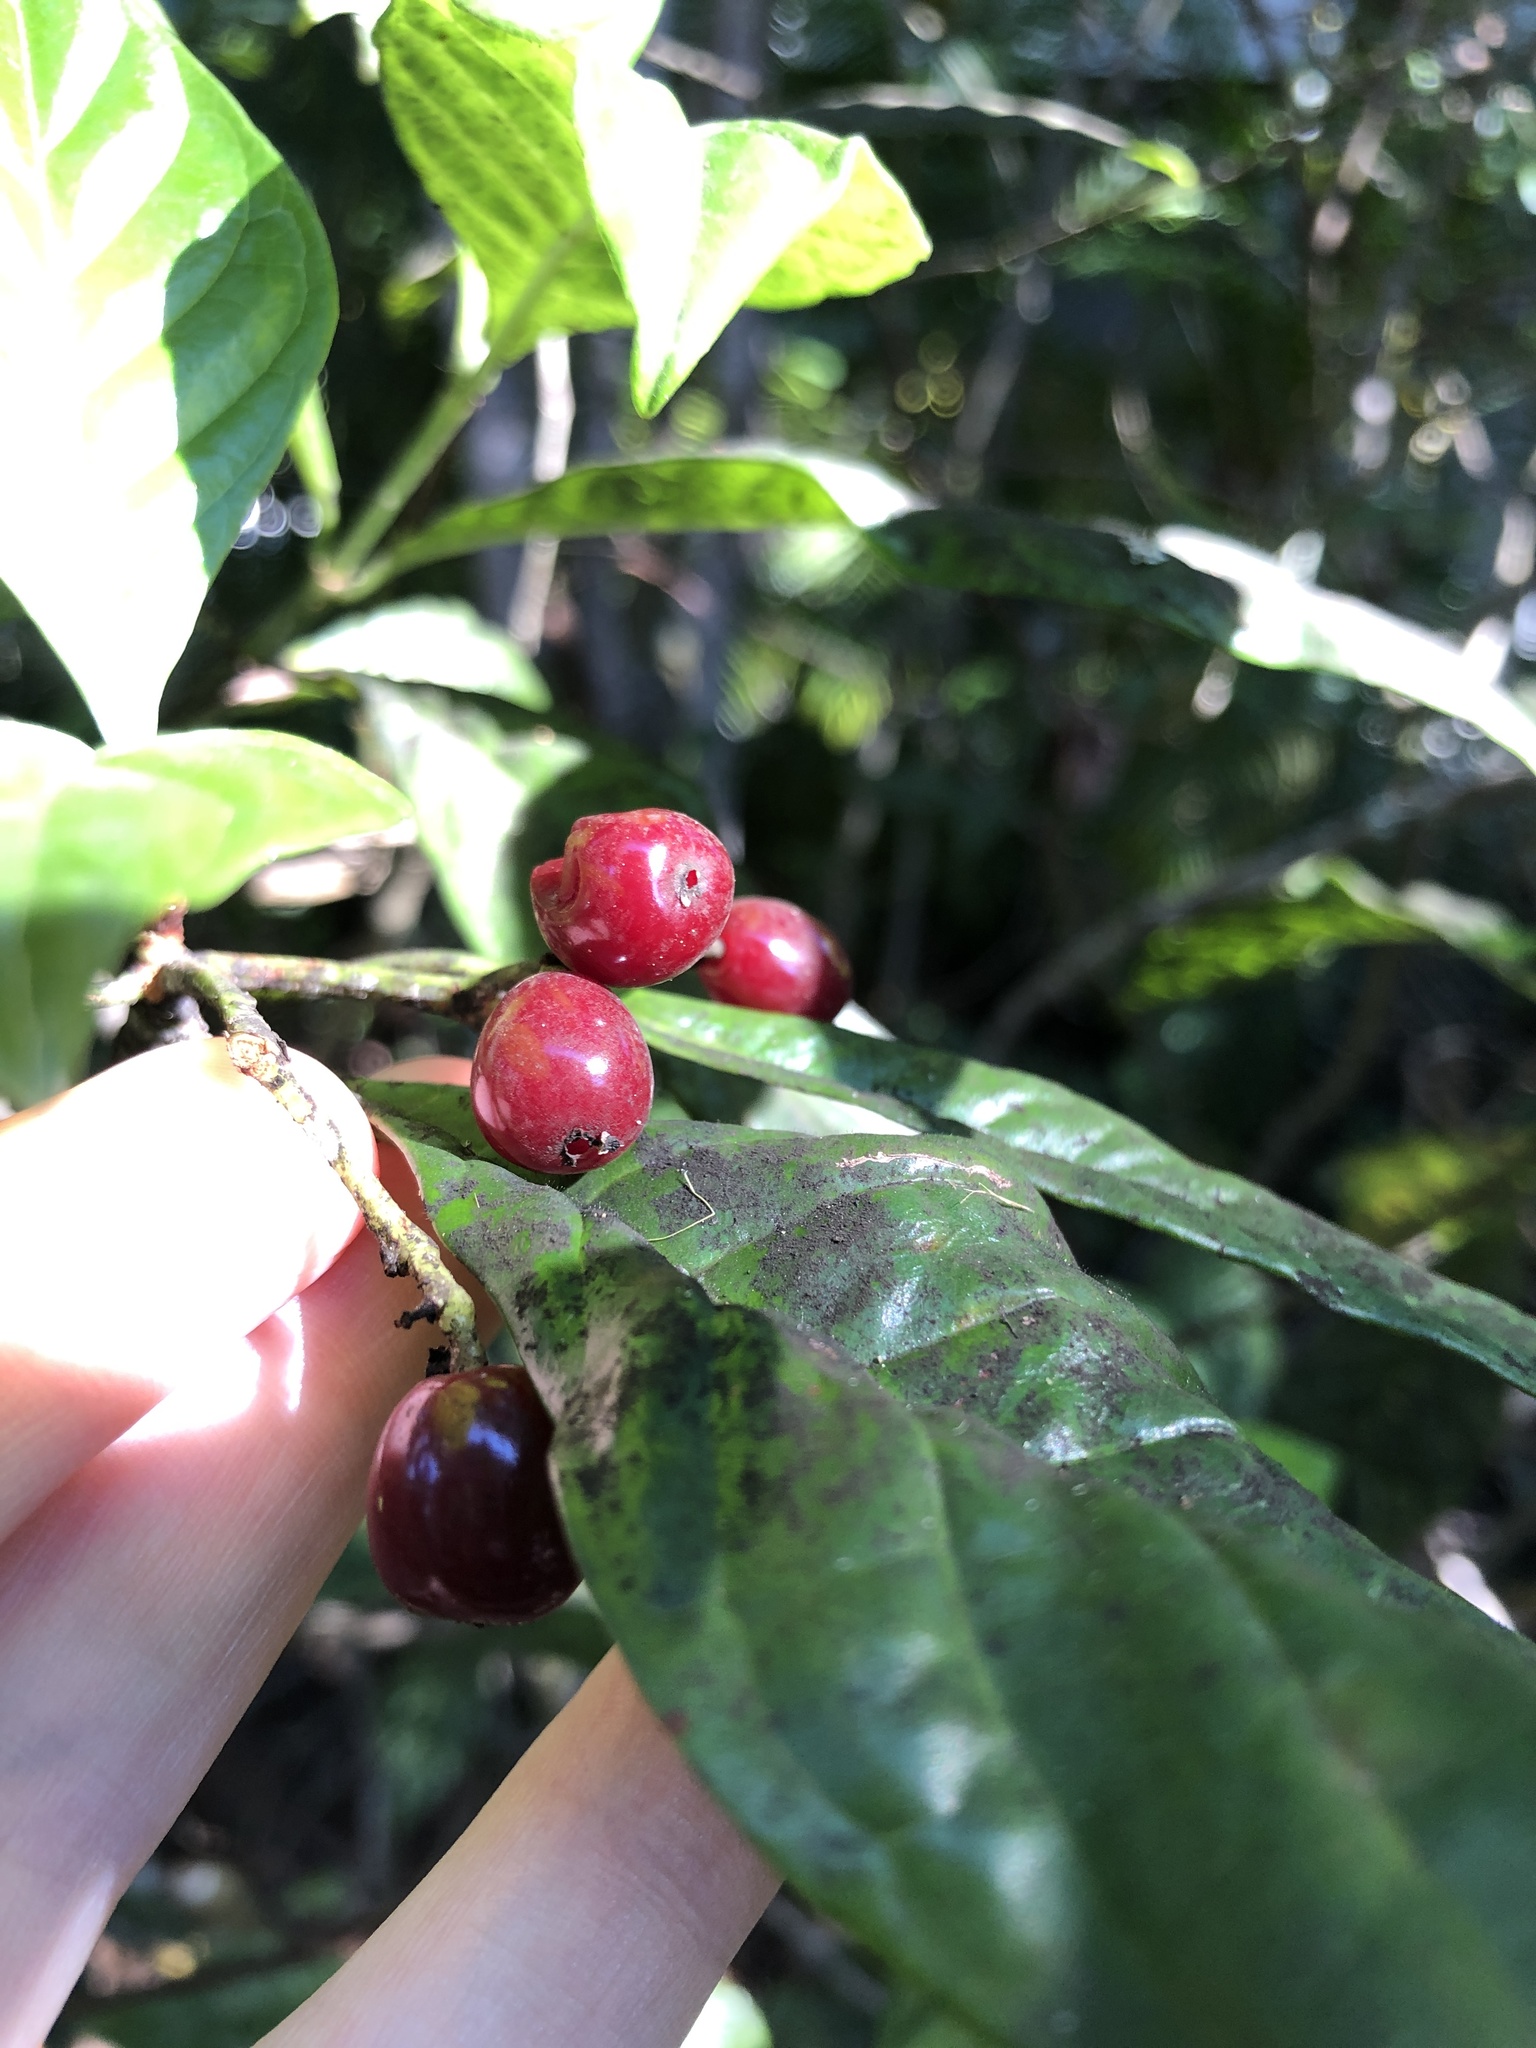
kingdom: Plantae
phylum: Tracheophyta
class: Magnoliopsida
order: Gentianales
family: Rubiaceae
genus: Psychotria
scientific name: Psychotria nervosa
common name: Bastard cankerberry
